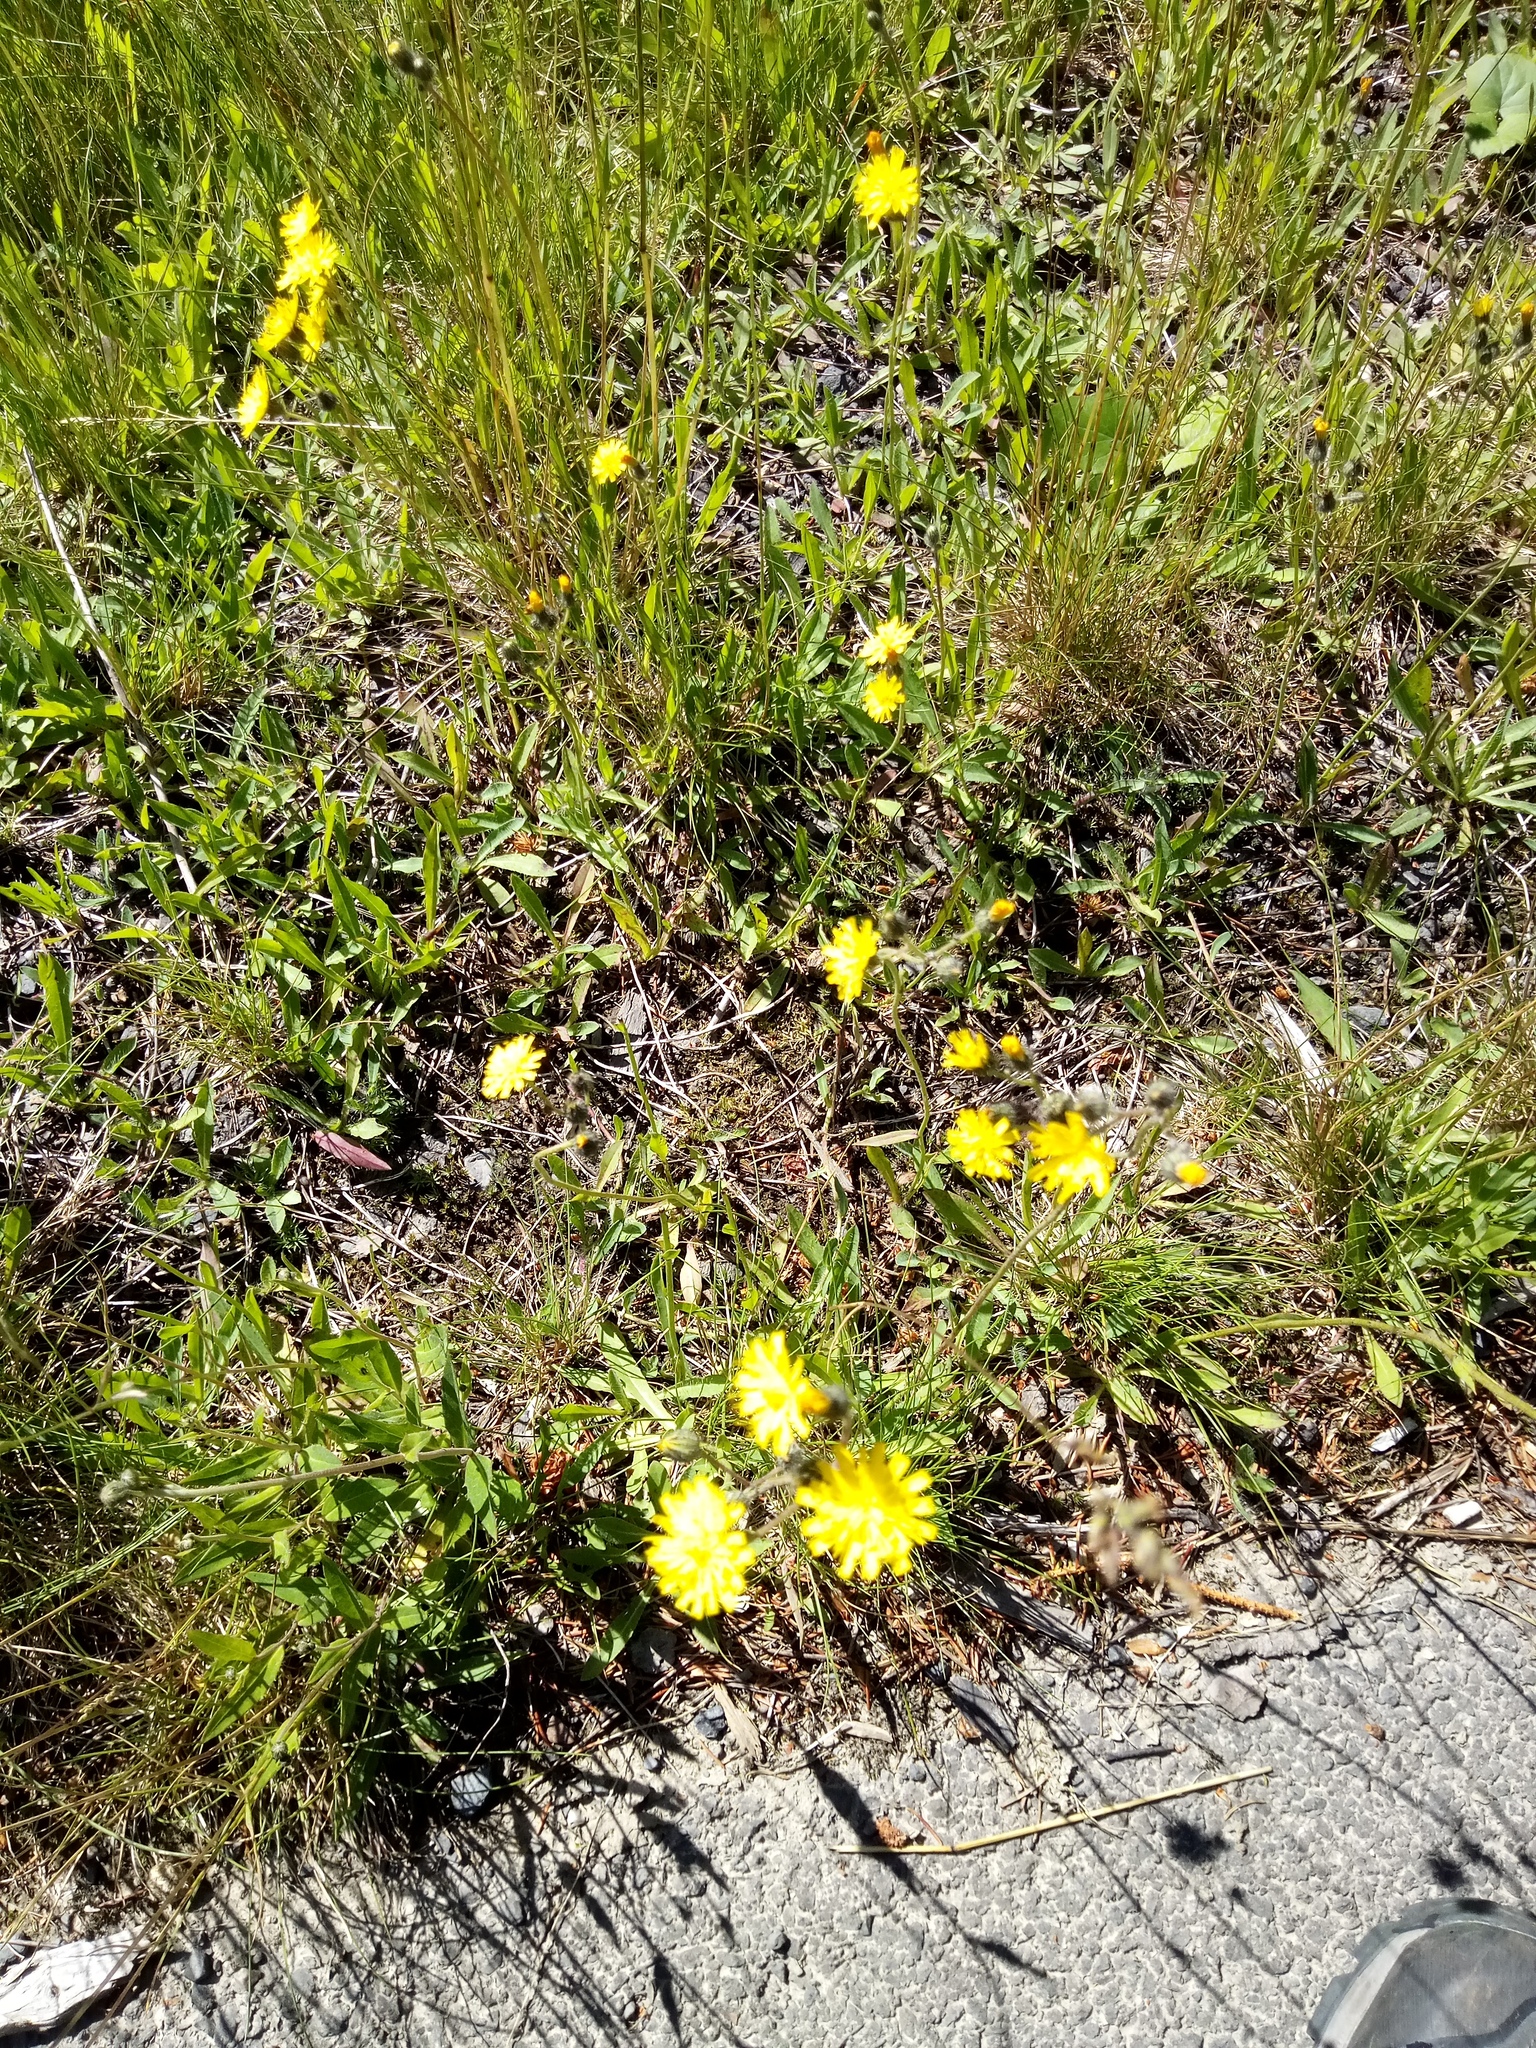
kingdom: Plantae
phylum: Tracheophyta
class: Magnoliopsida
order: Asterales
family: Asteraceae
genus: Pilosella
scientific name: Pilosella officinarum
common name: Mouse-ear hawkweed
